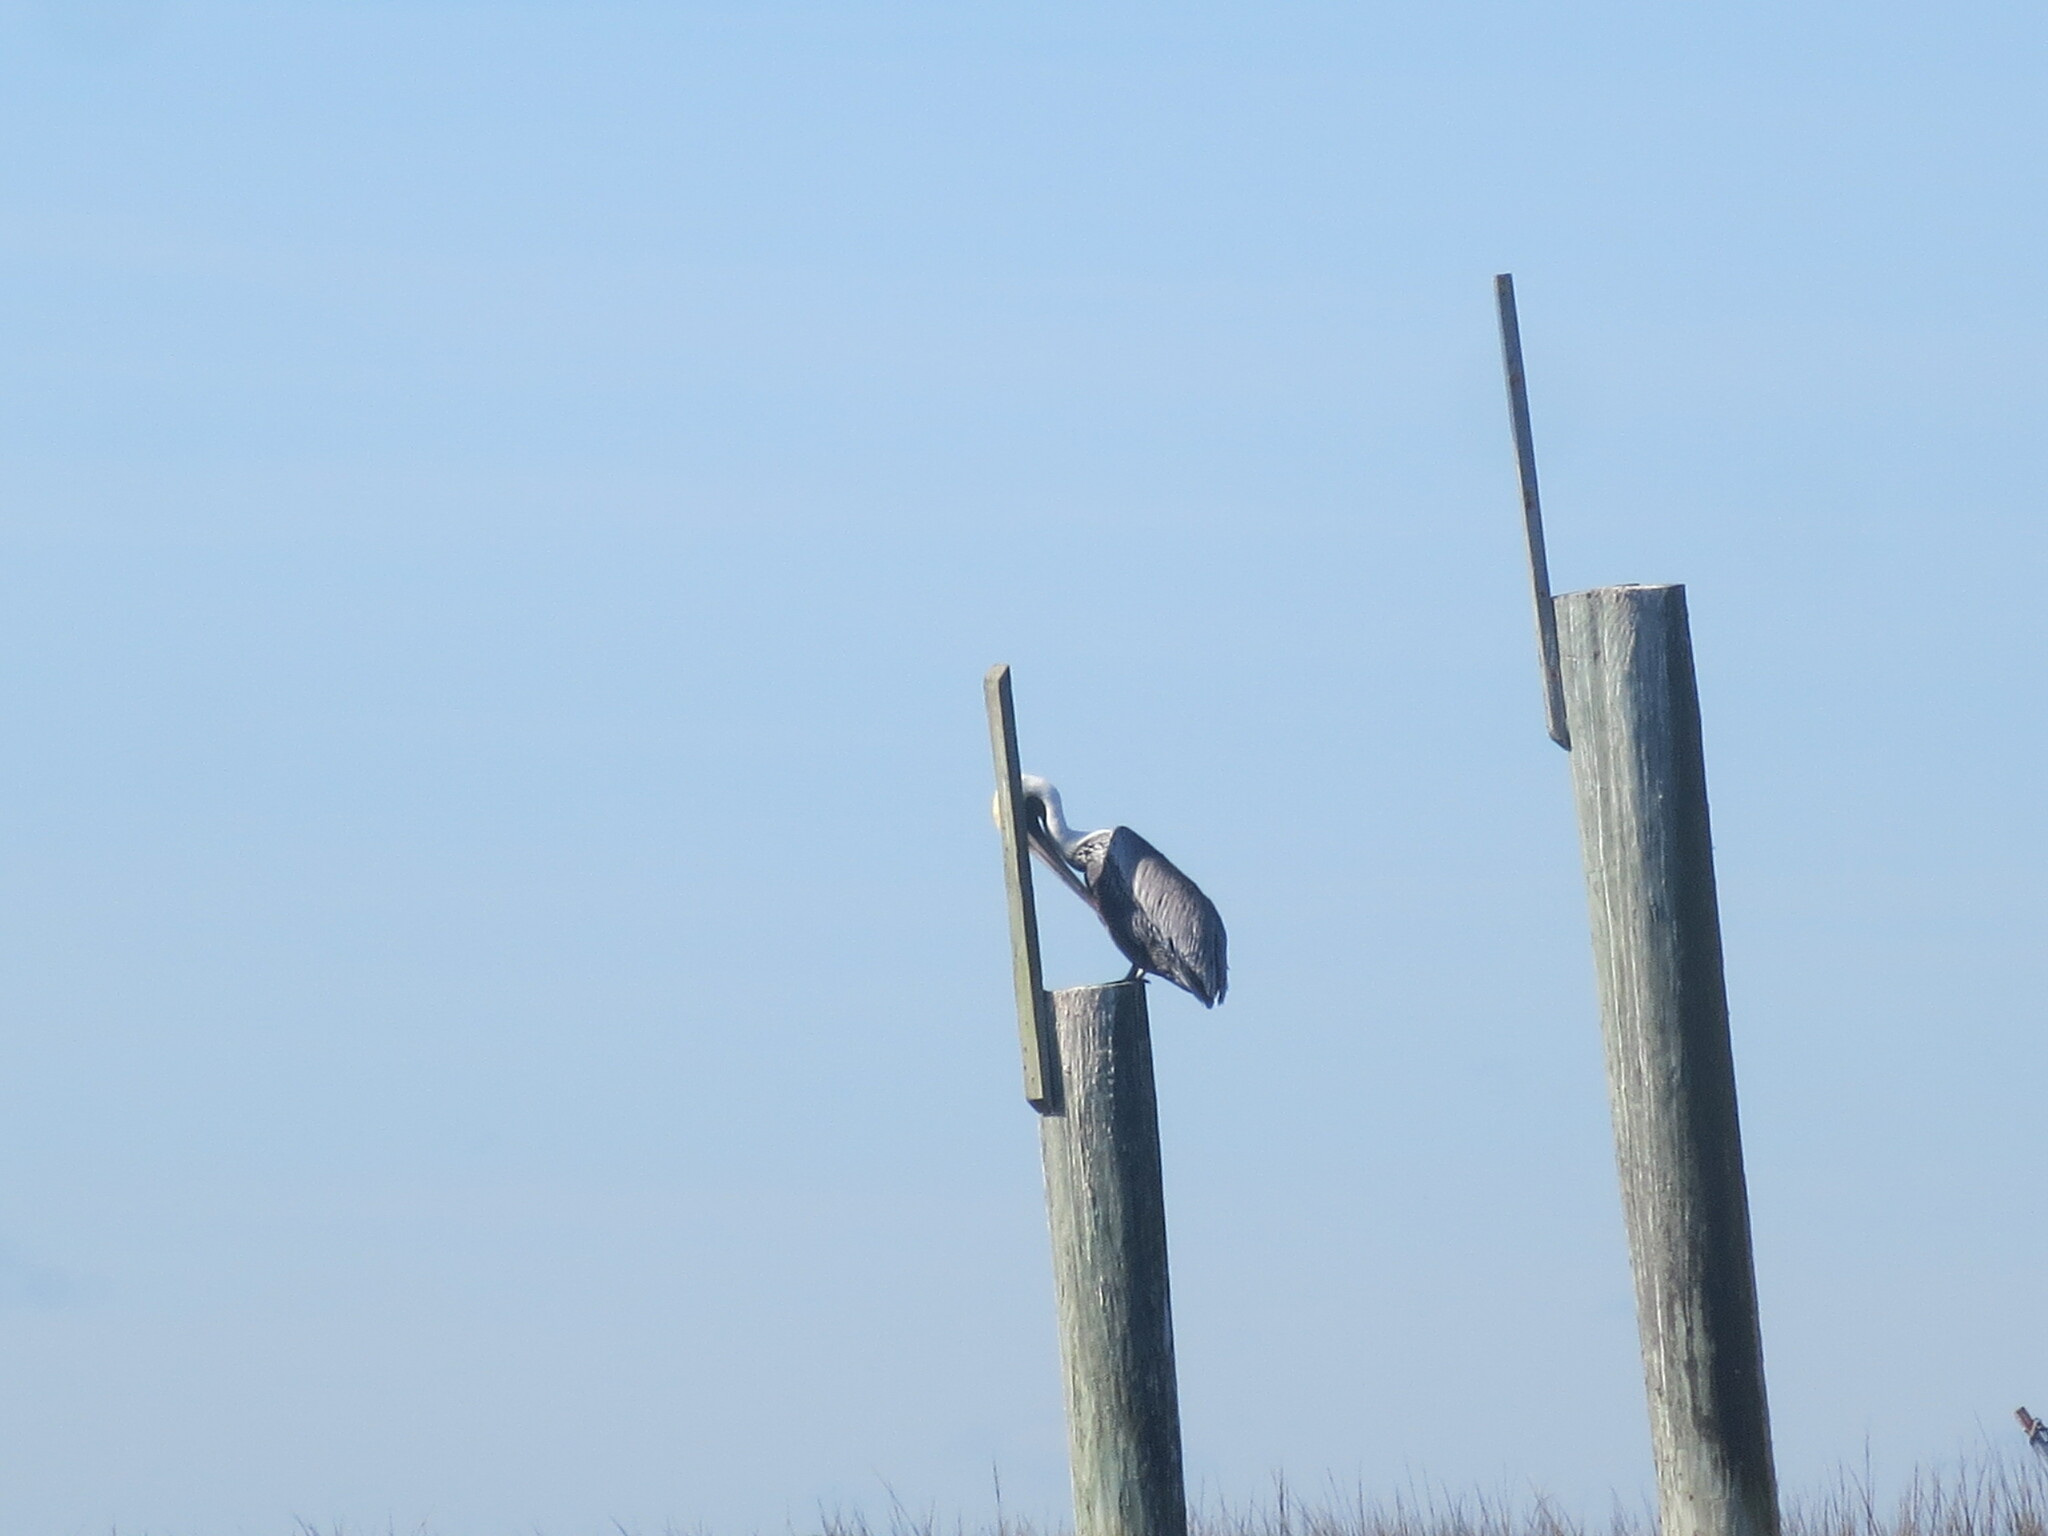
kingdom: Animalia
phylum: Chordata
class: Aves
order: Pelecaniformes
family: Pelecanidae
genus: Pelecanus
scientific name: Pelecanus occidentalis
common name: Brown pelican
